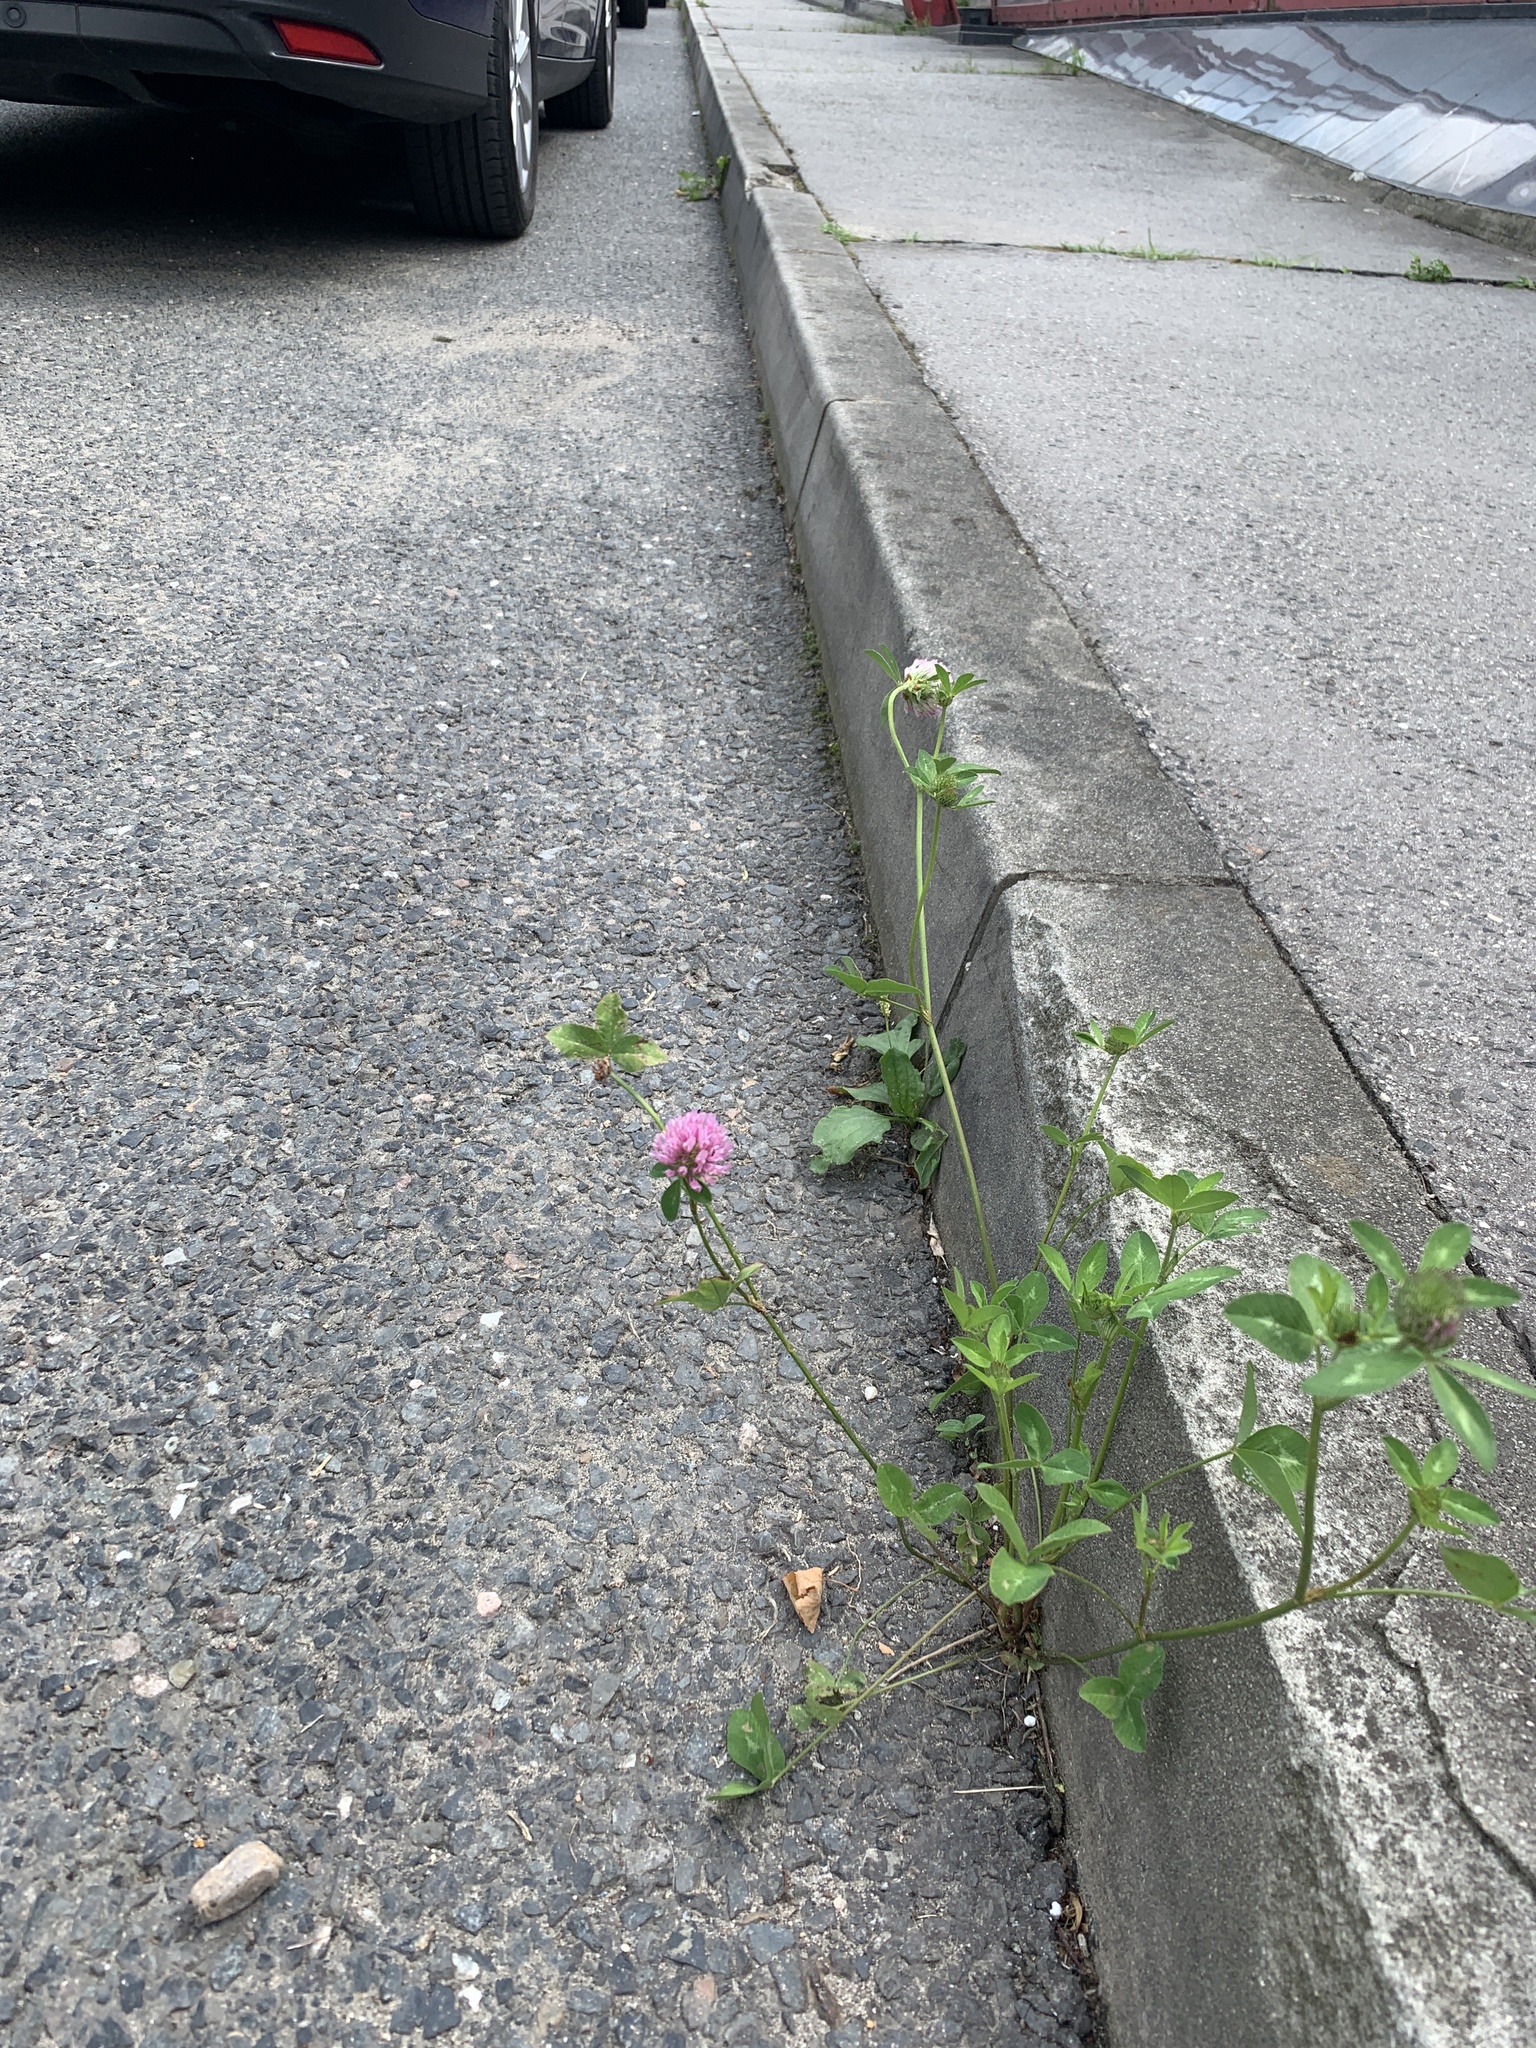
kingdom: Plantae
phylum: Tracheophyta
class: Magnoliopsida
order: Fabales
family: Fabaceae
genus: Trifolium
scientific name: Trifolium pratense
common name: Red clover
